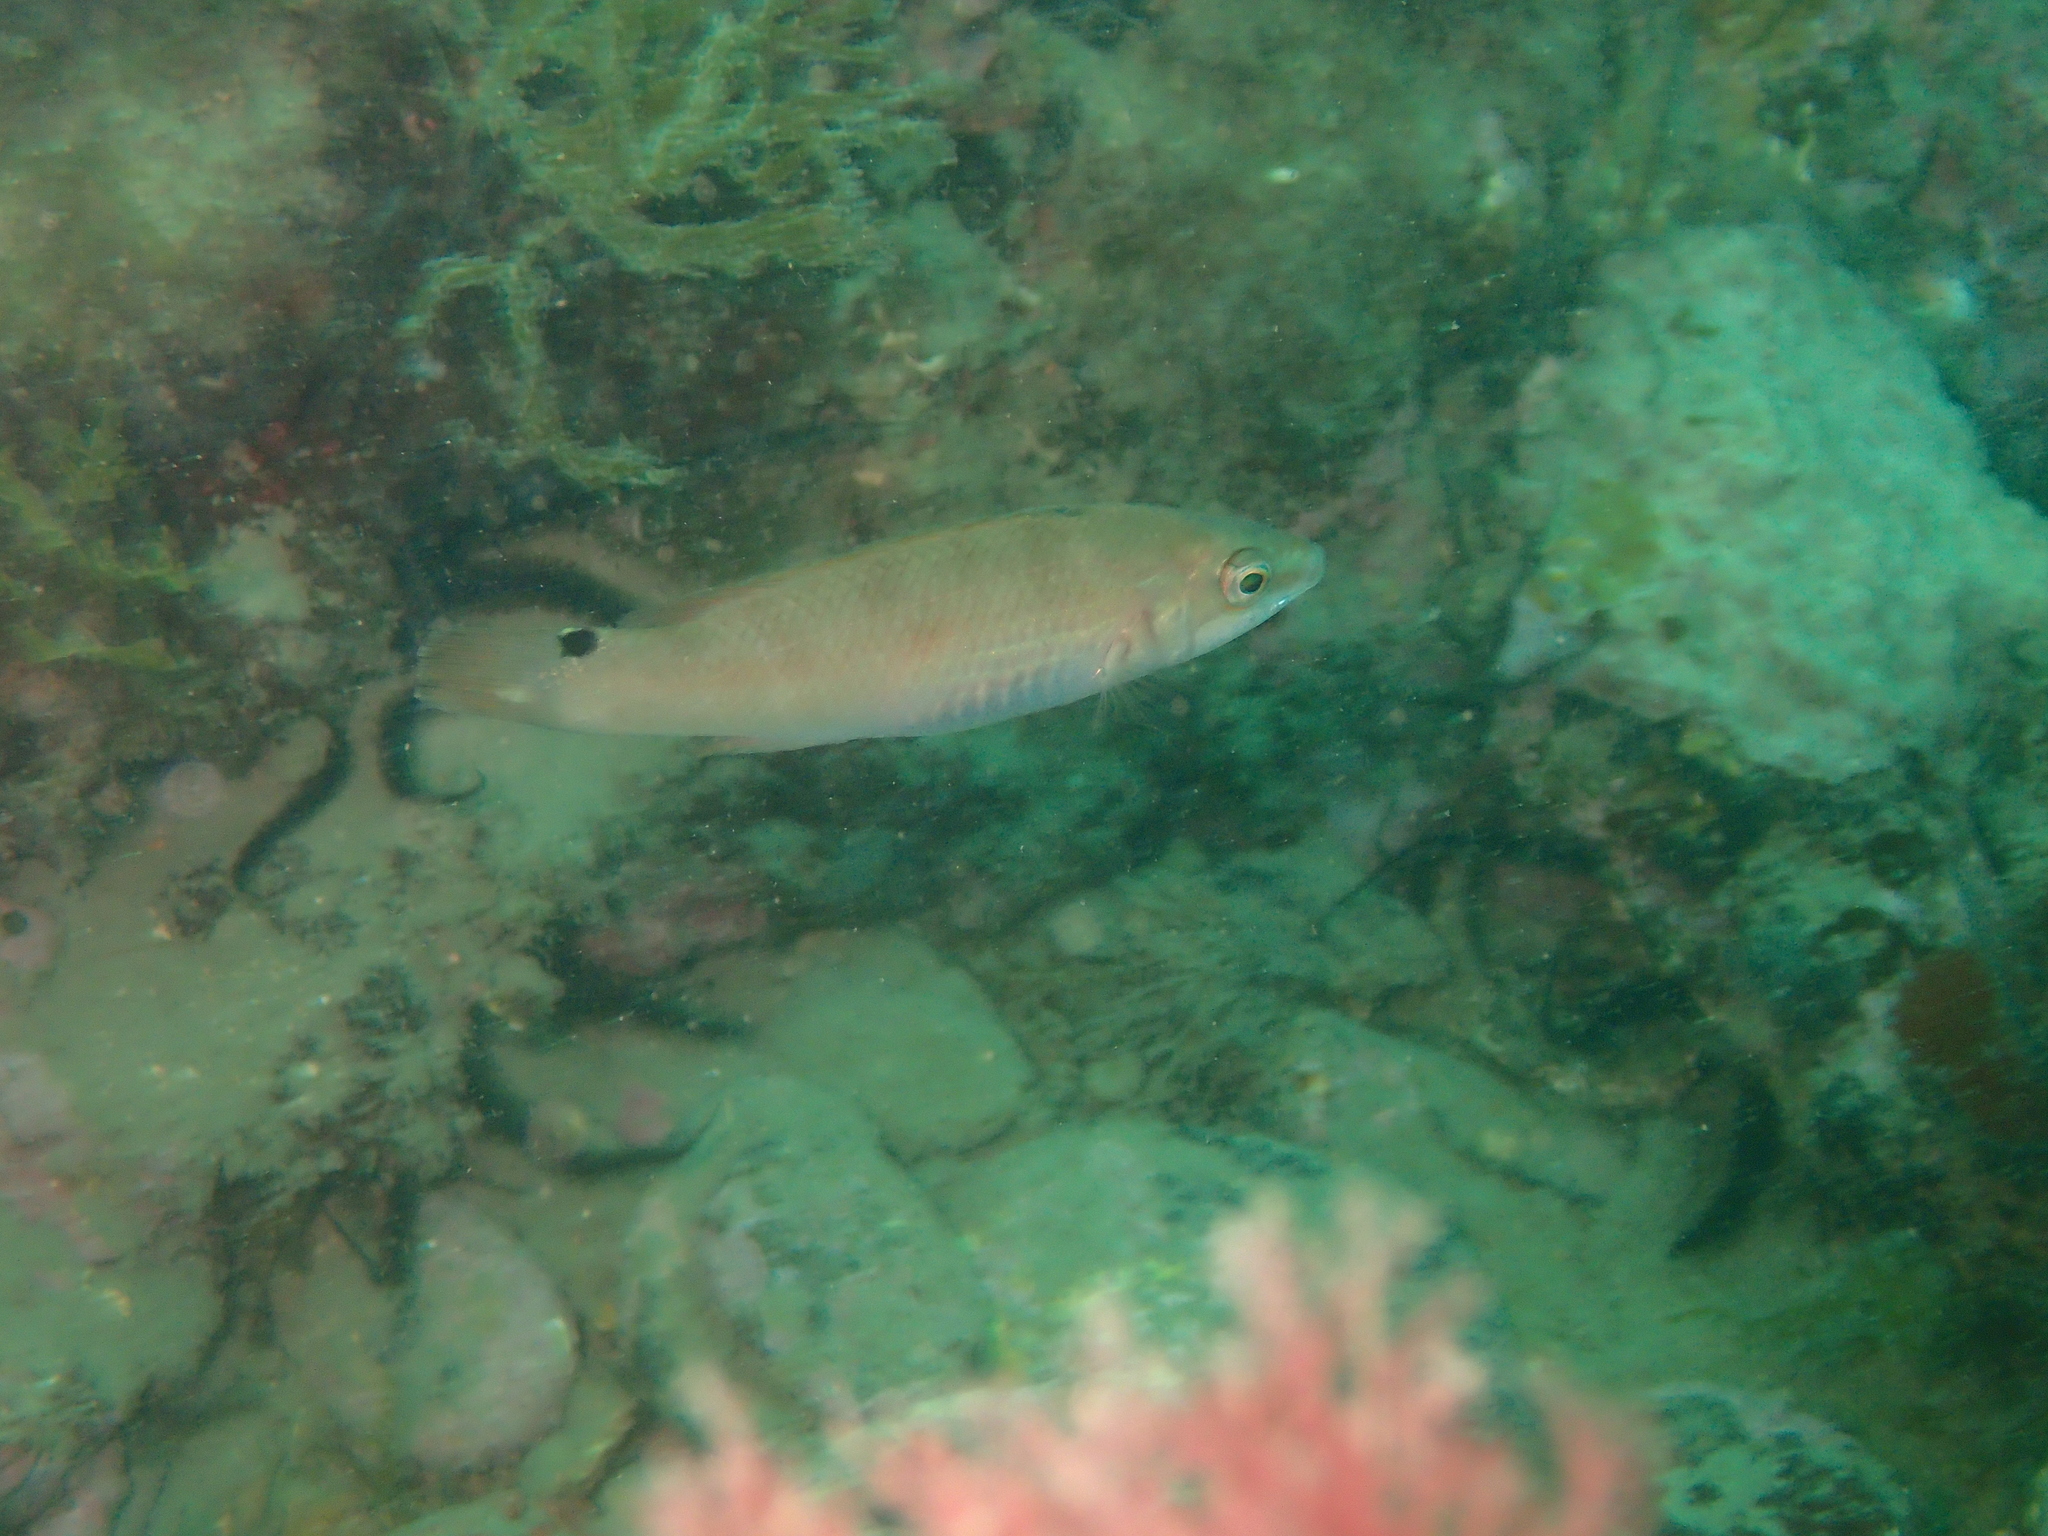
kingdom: Animalia
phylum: Chordata
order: Perciformes
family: Labridae
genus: Ctenolabrus
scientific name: Ctenolabrus rupestris
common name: Goldsinny
